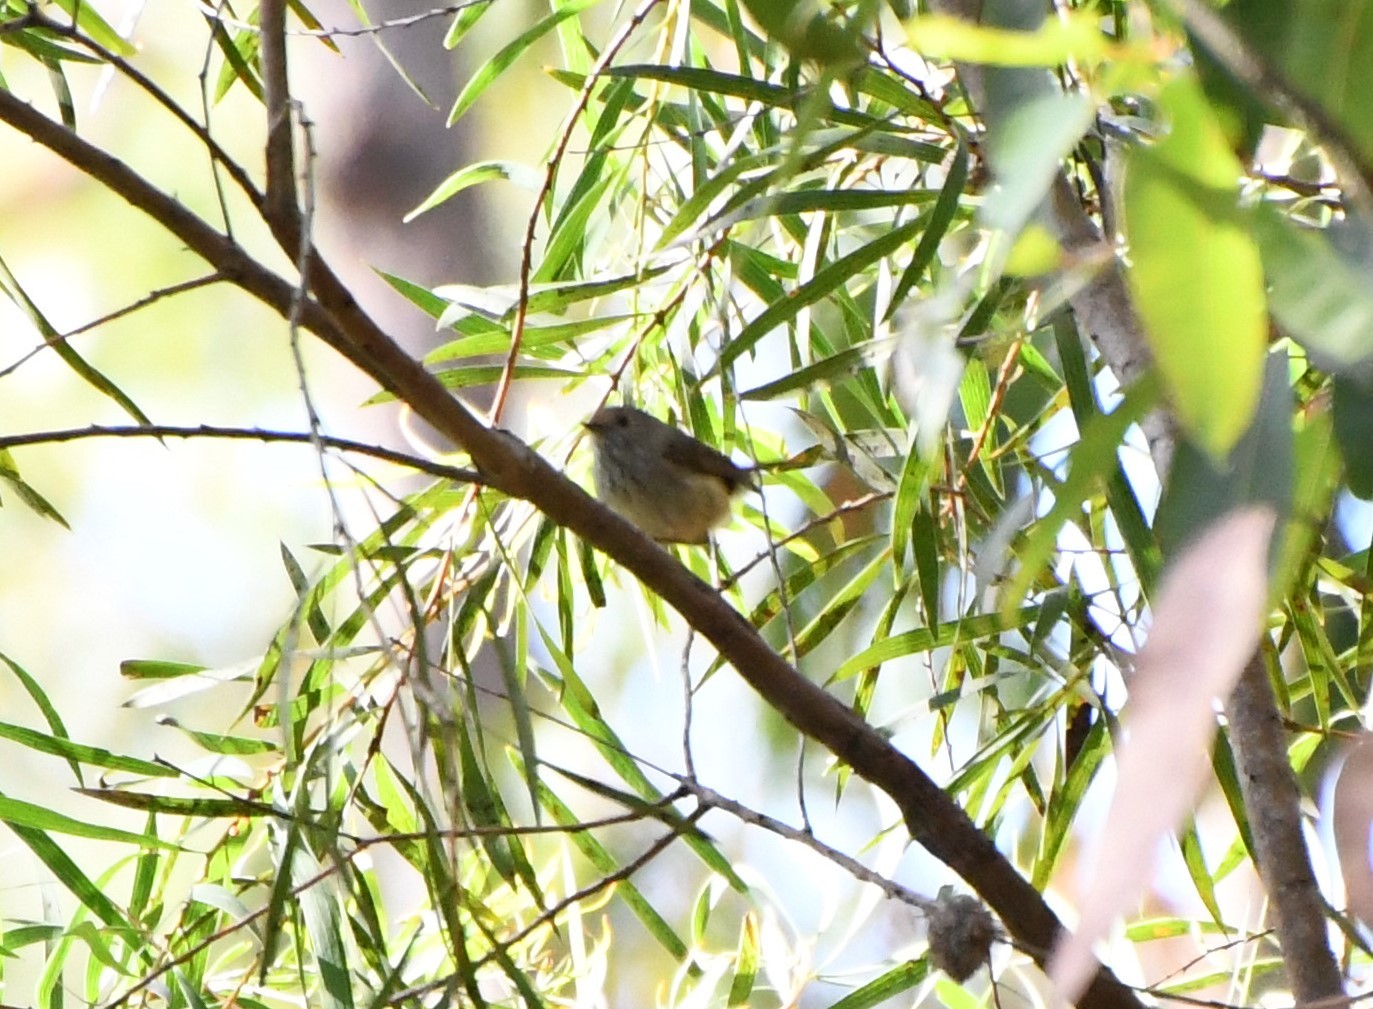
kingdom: Animalia
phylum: Chordata
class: Aves
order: Passeriformes
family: Acanthizidae
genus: Acanthiza
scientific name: Acanthiza pusilla
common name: Brown thornbill
